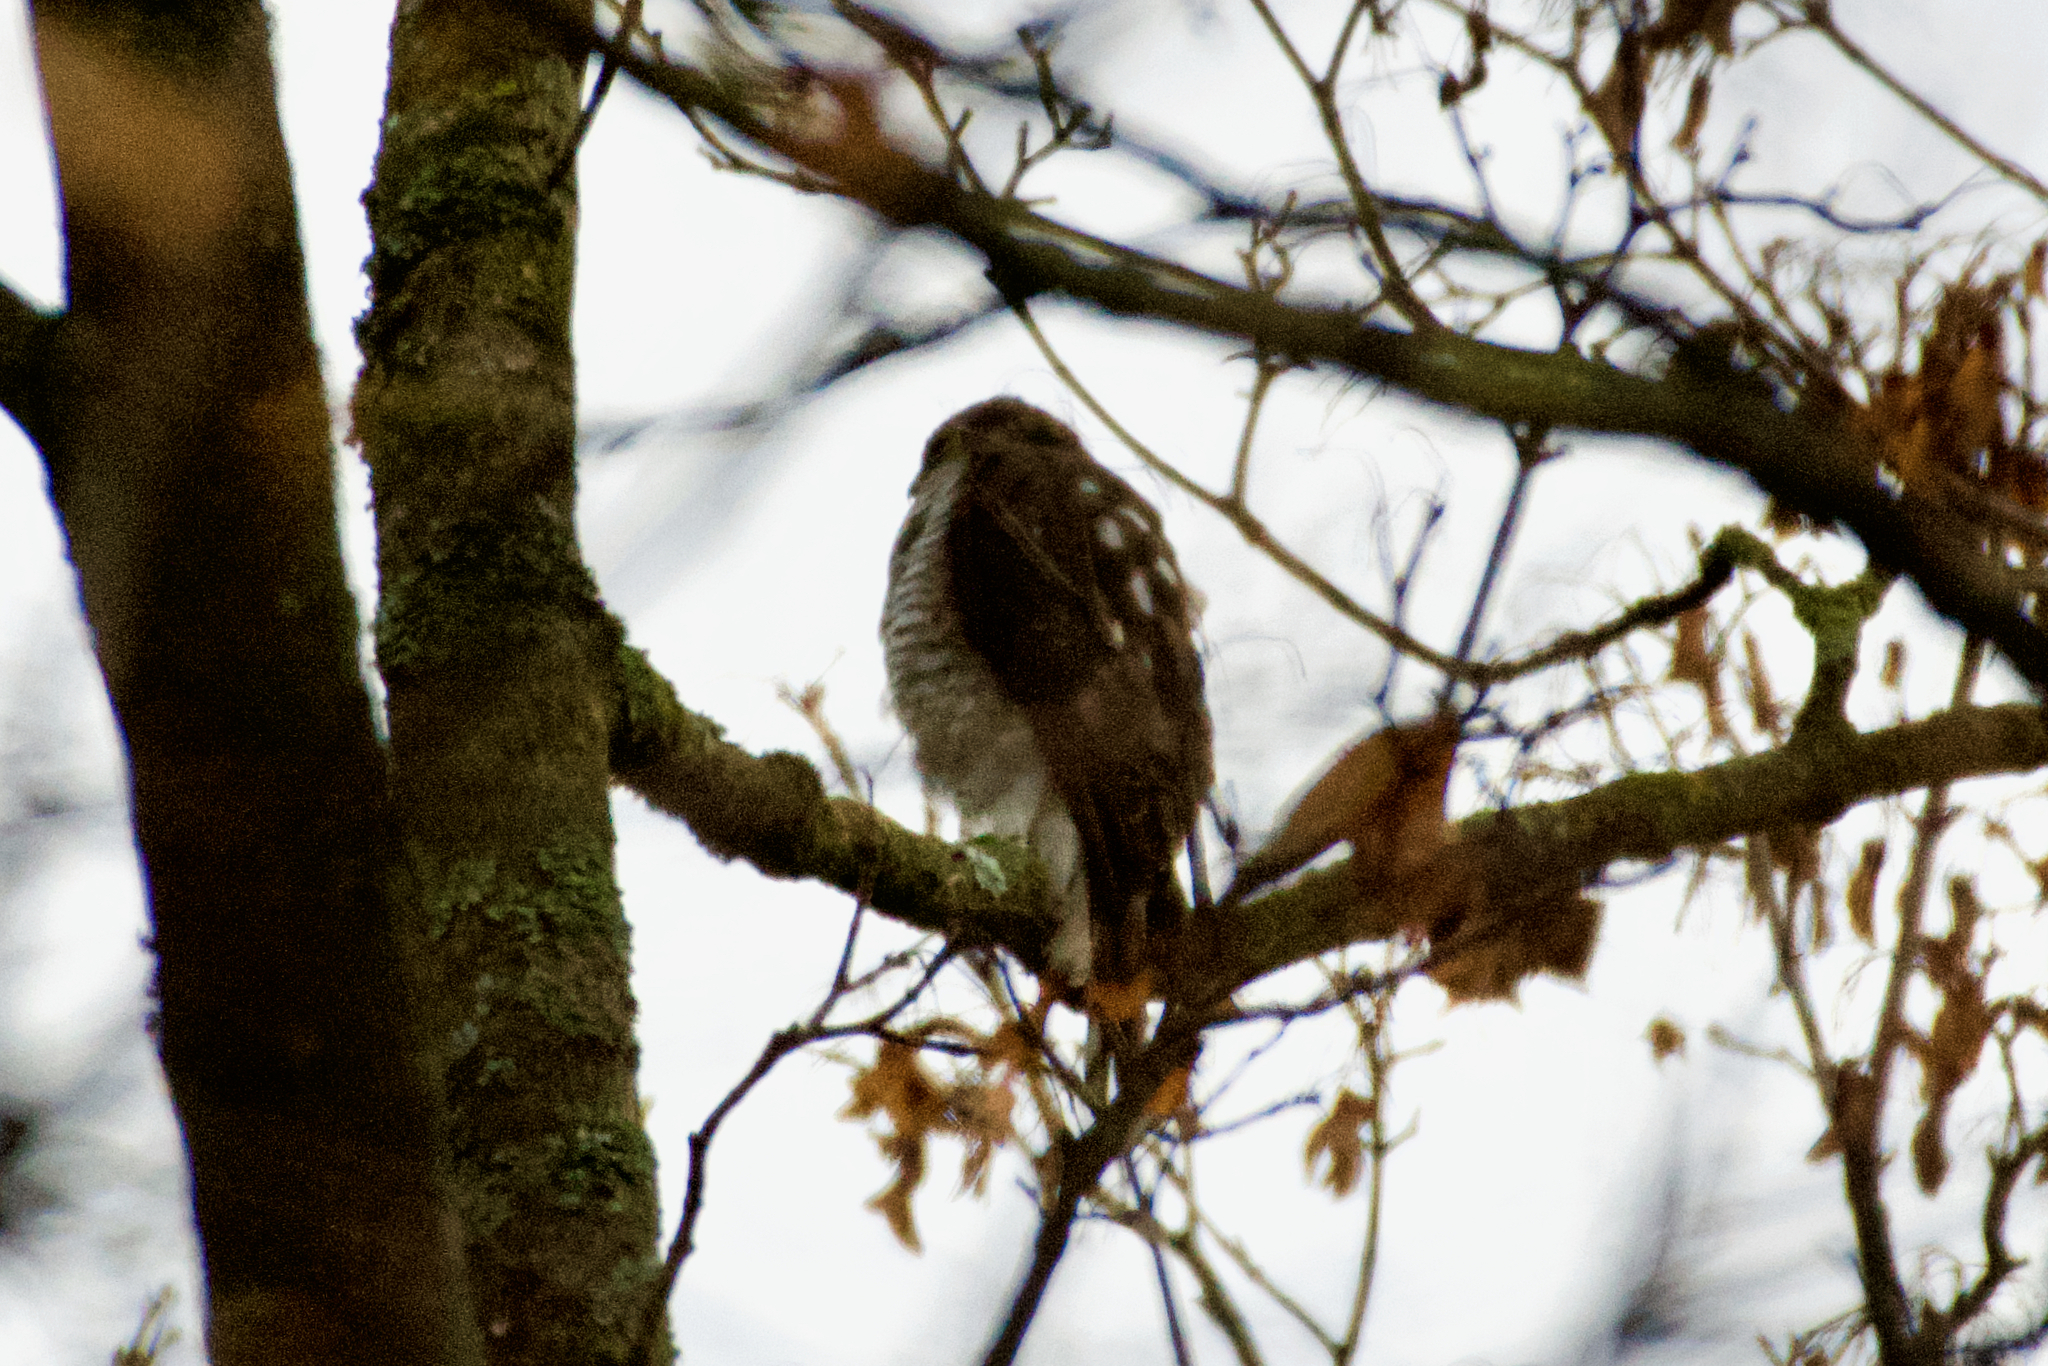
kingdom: Animalia
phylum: Chordata
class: Aves
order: Accipitriformes
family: Accipitridae
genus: Accipiter
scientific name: Accipiter nisus
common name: Eurasian sparrowhawk
